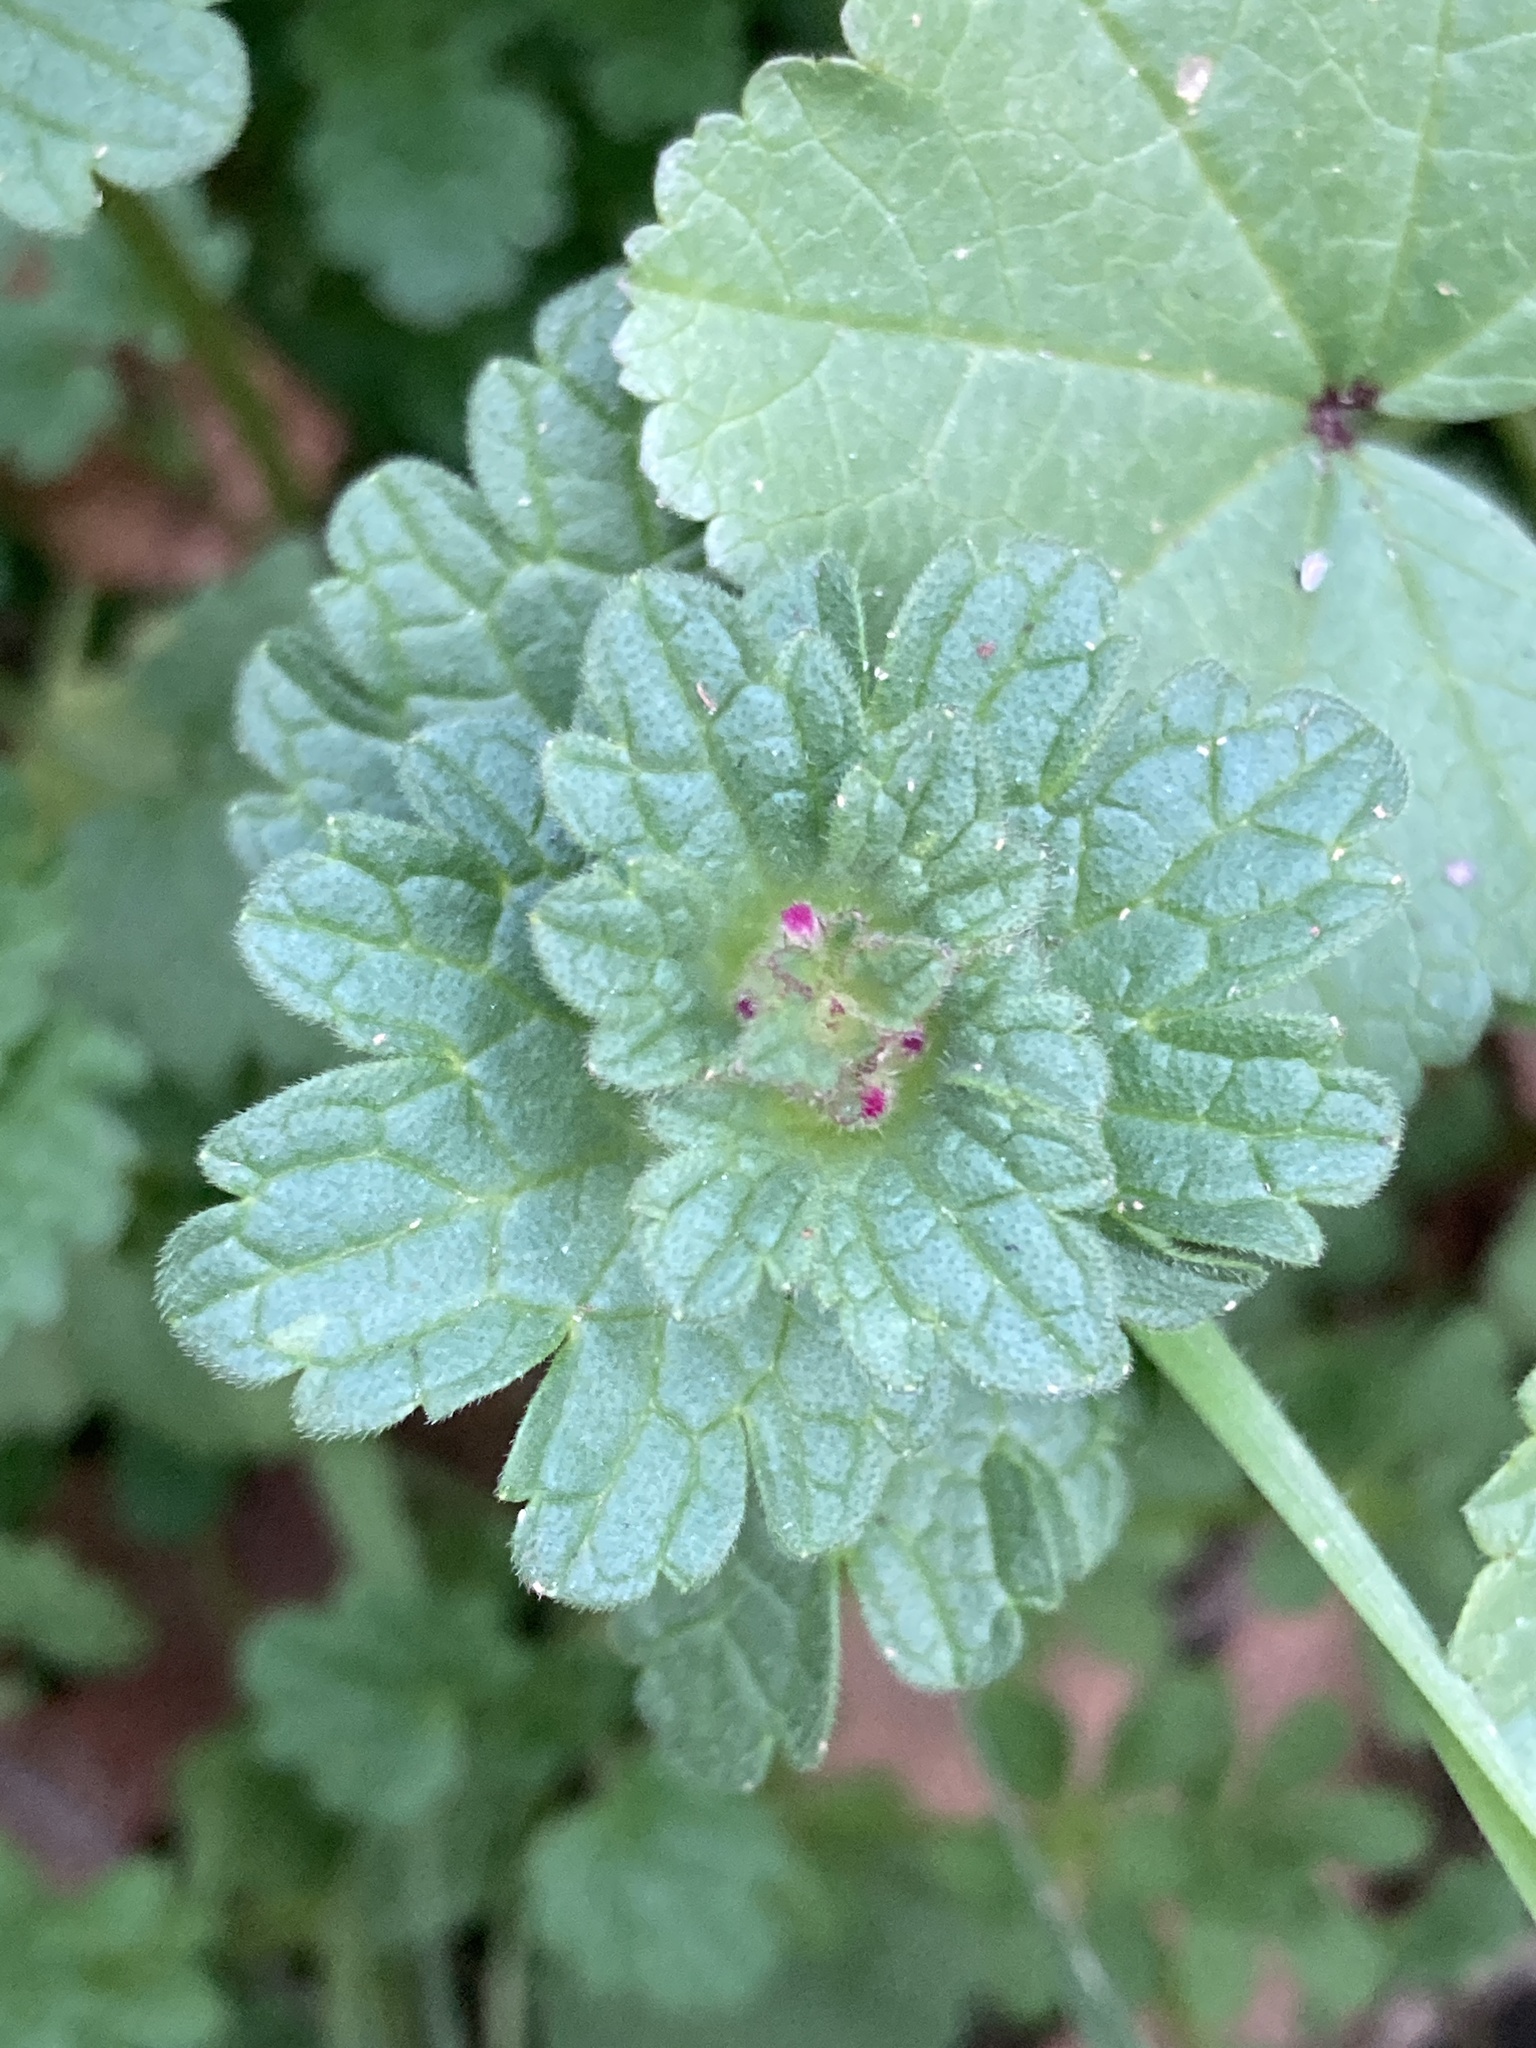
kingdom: Plantae
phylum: Tracheophyta
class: Magnoliopsida
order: Lamiales
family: Lamiaceae
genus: Lamium
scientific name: Lamium amplexicaule
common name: Henbit dead-nettle
